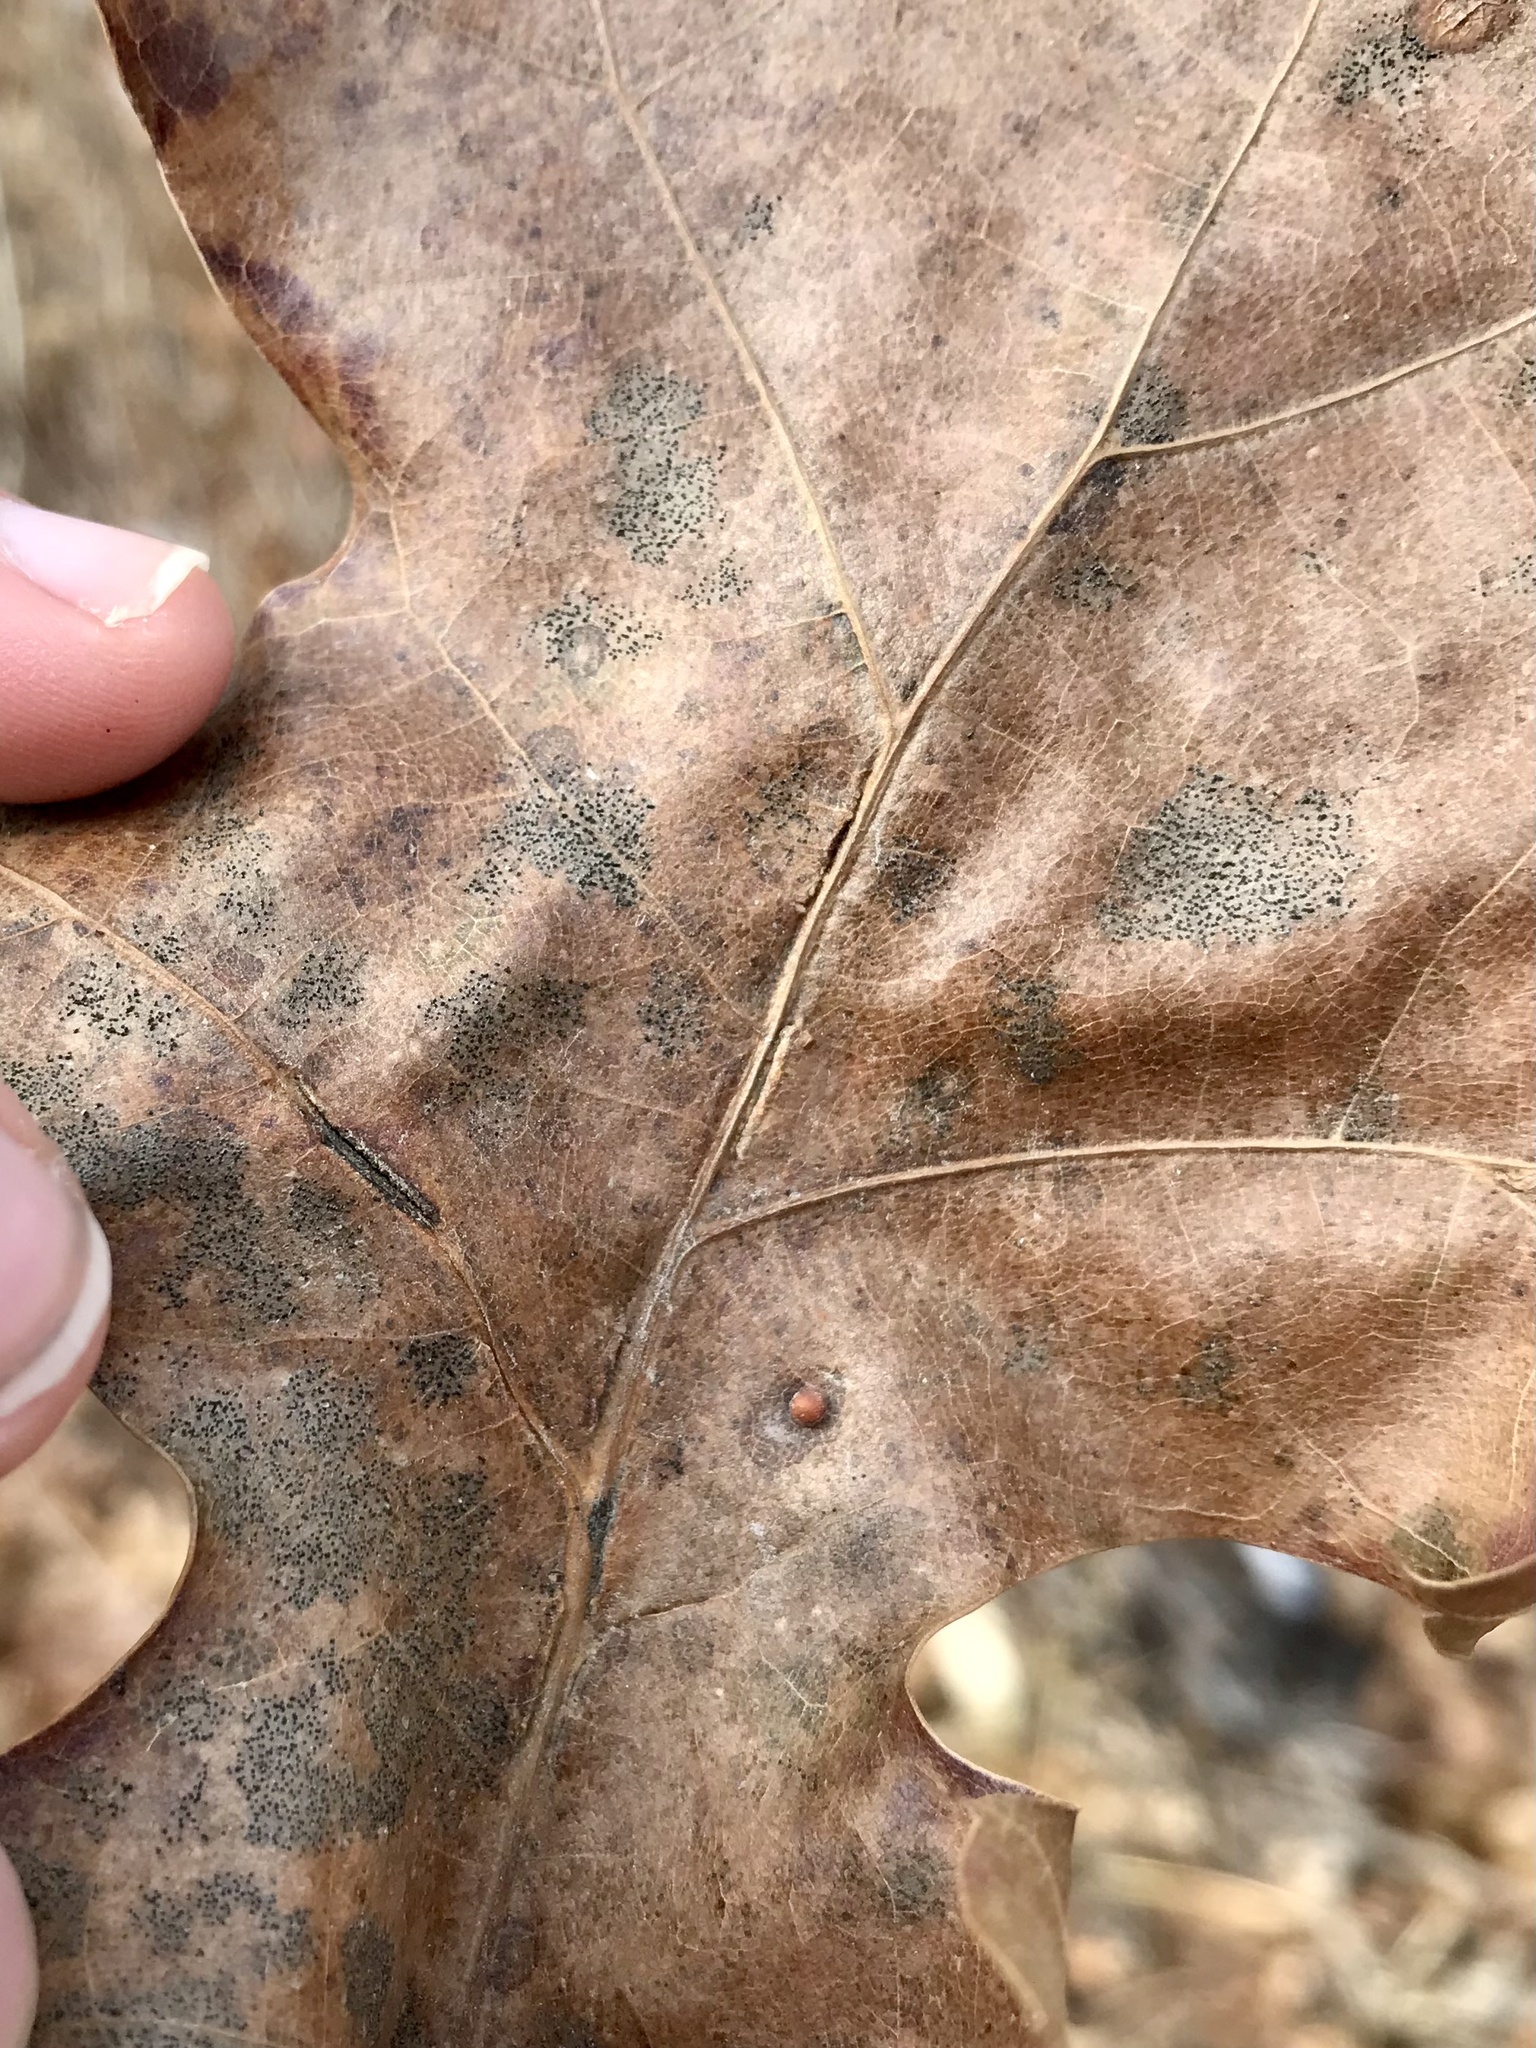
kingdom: Animalia
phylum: Arthropoda
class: Insecta
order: Diptera
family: Cecidomyiidae
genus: Macrodiplosis
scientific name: Macrodiplosis q-orucum
